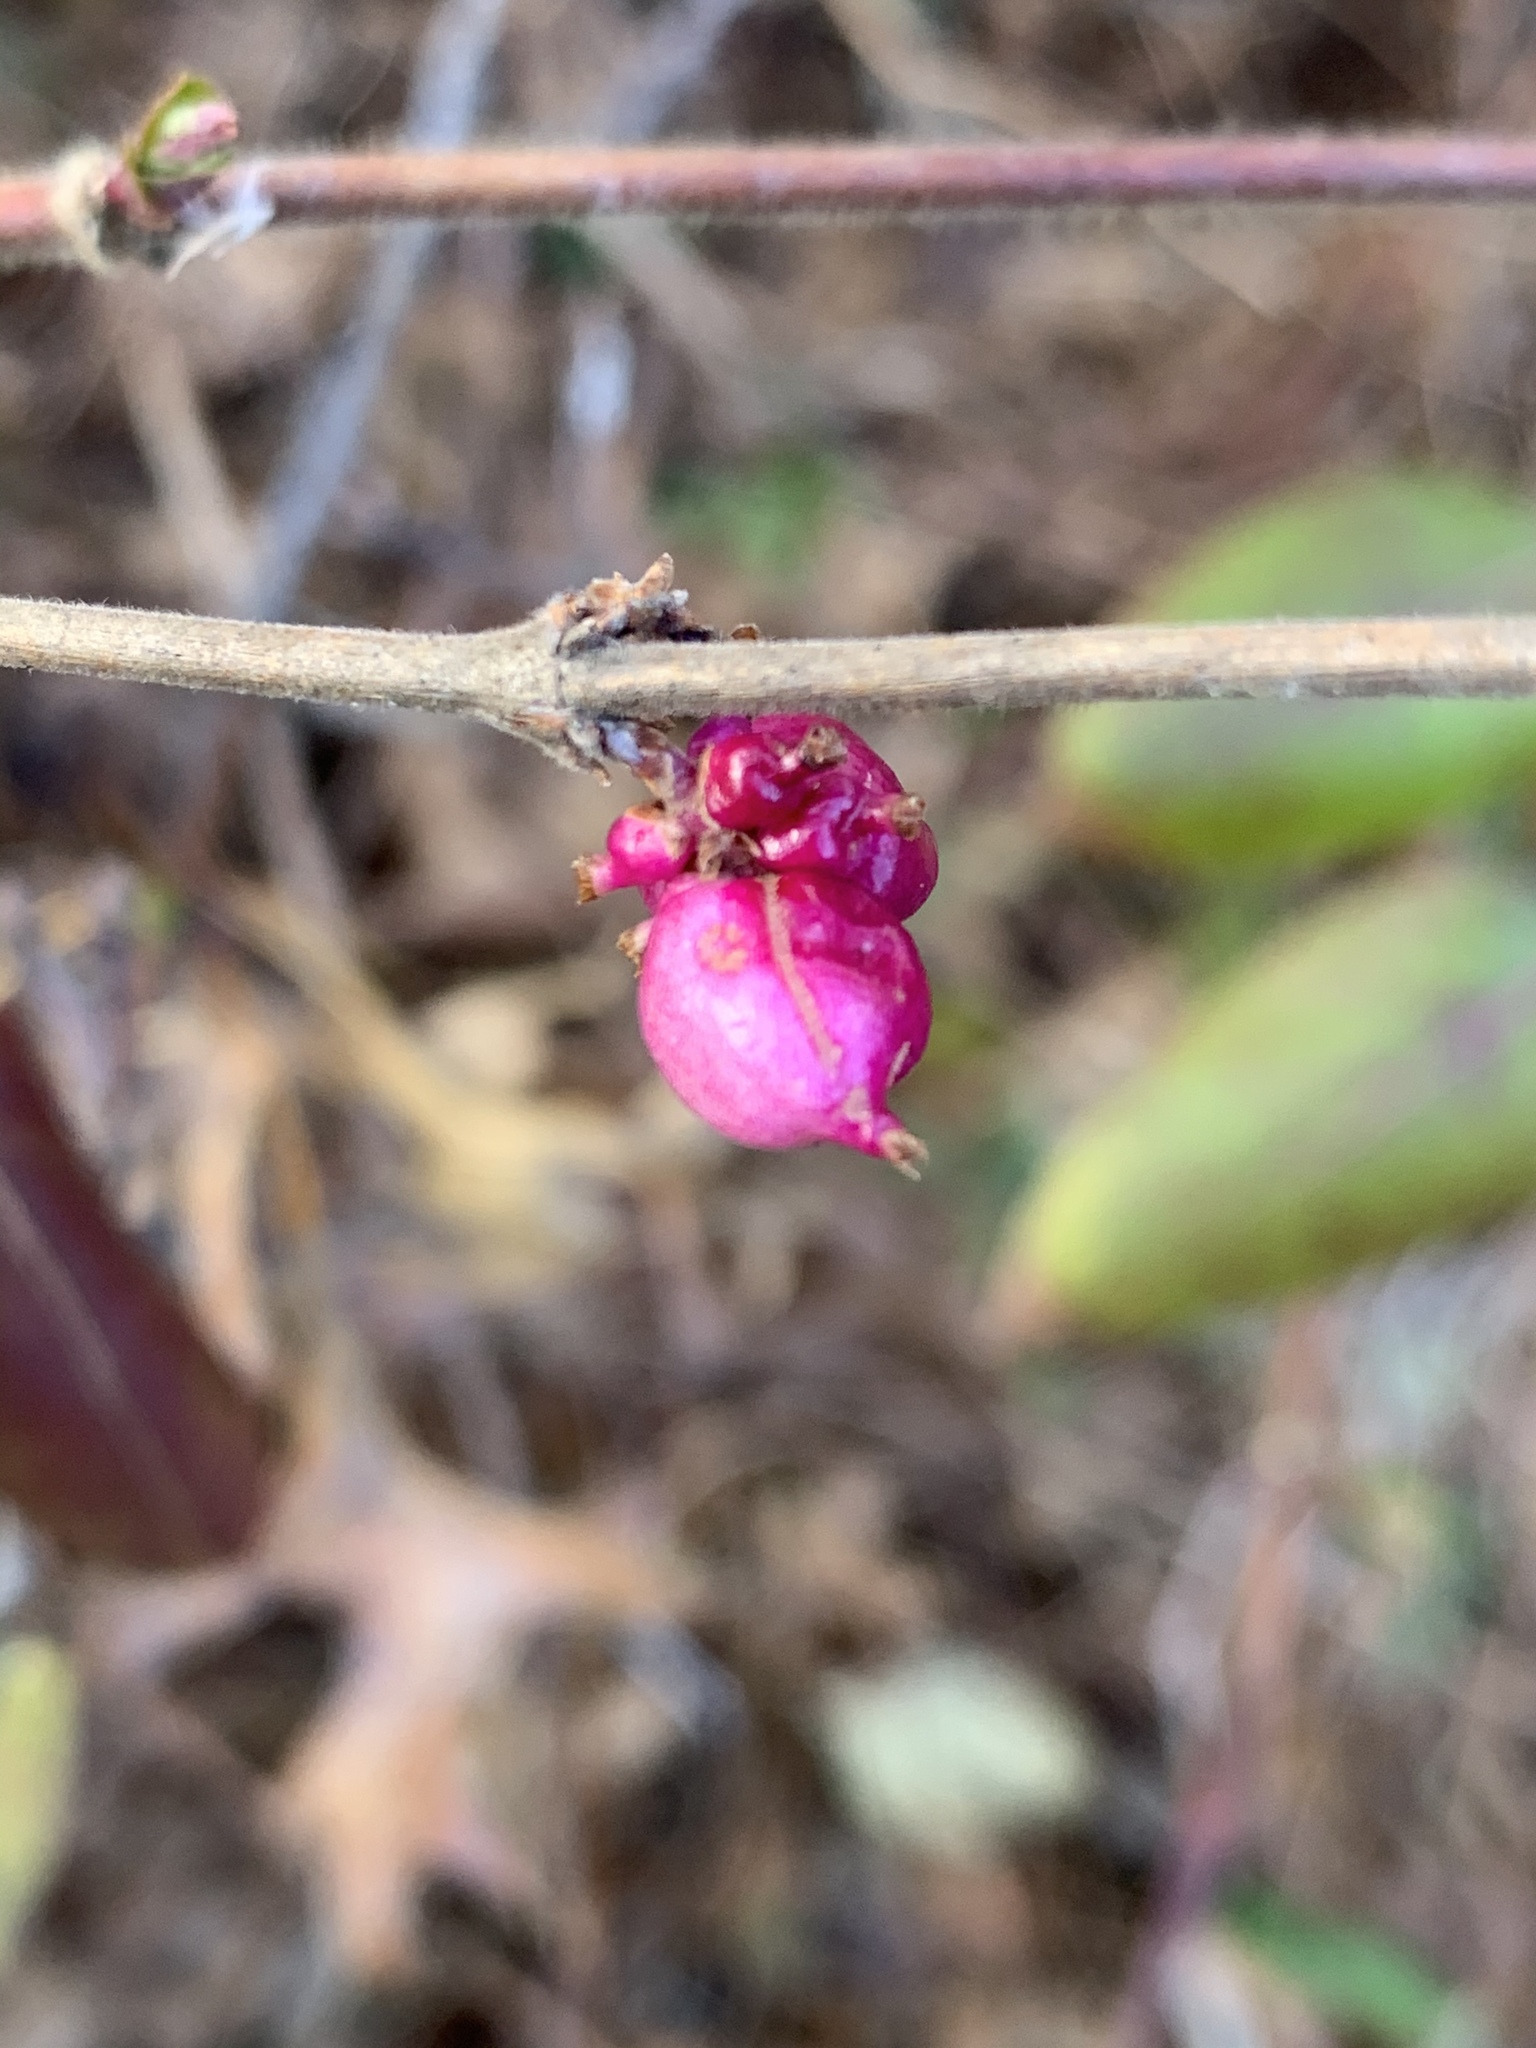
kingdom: Plantae
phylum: Tracheophyta
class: Magnoliopsida
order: Dipsacales
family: Caprifoliaceae
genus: Symphoricarpos
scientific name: Symphoricarpos orbiculatus
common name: Coralberry
